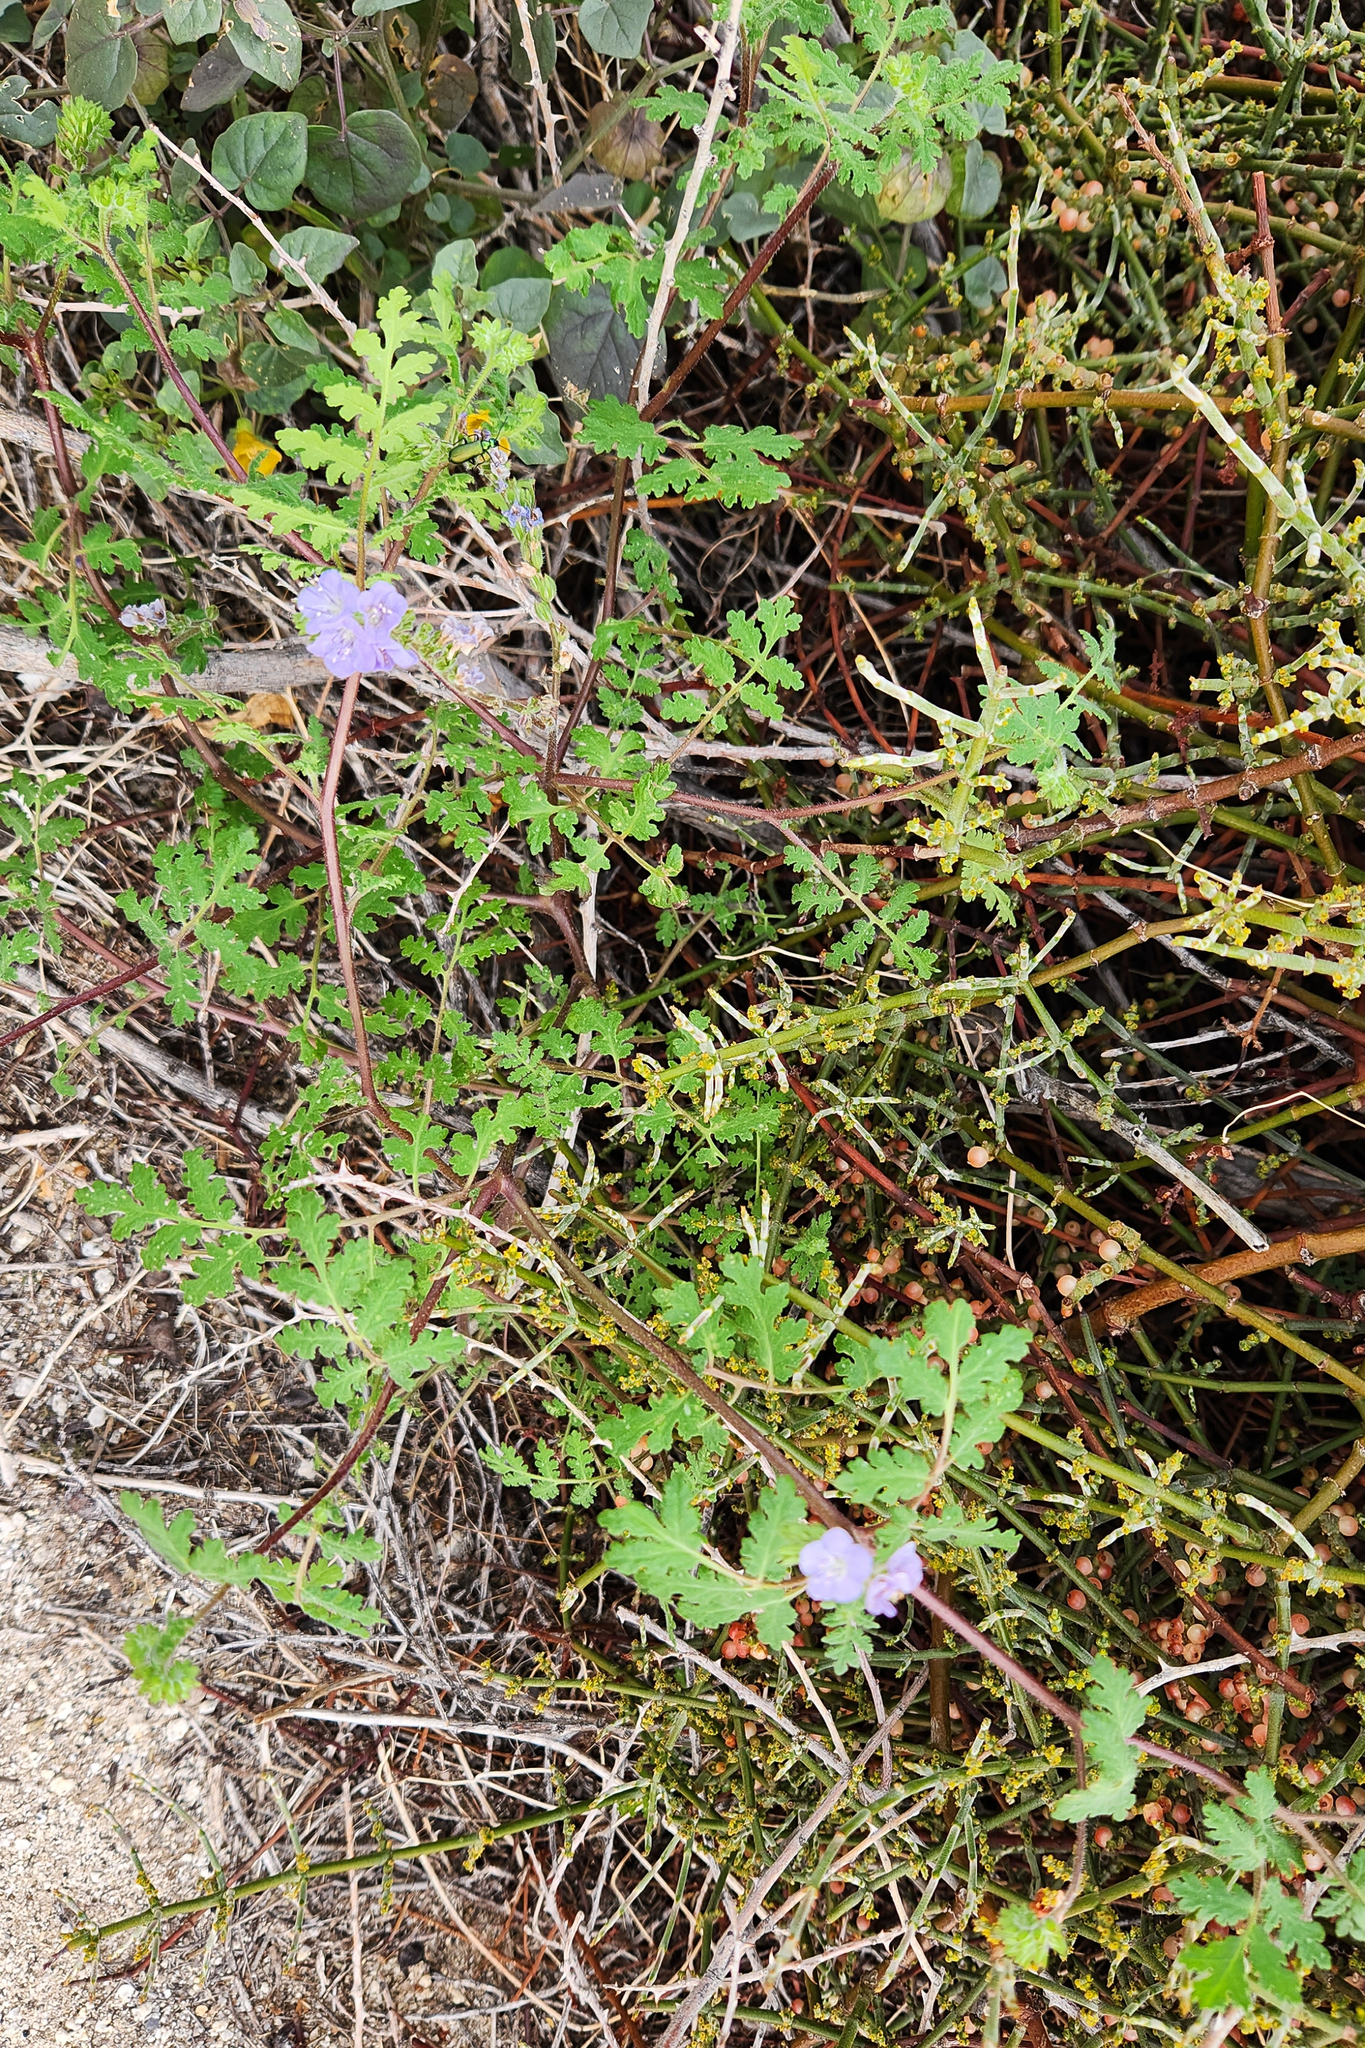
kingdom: Plantae
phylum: Tracheophyta
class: Magnoliopsida
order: Boraginales
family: Hydrophyllaceae
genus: Phacelia
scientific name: Phacelia distans
